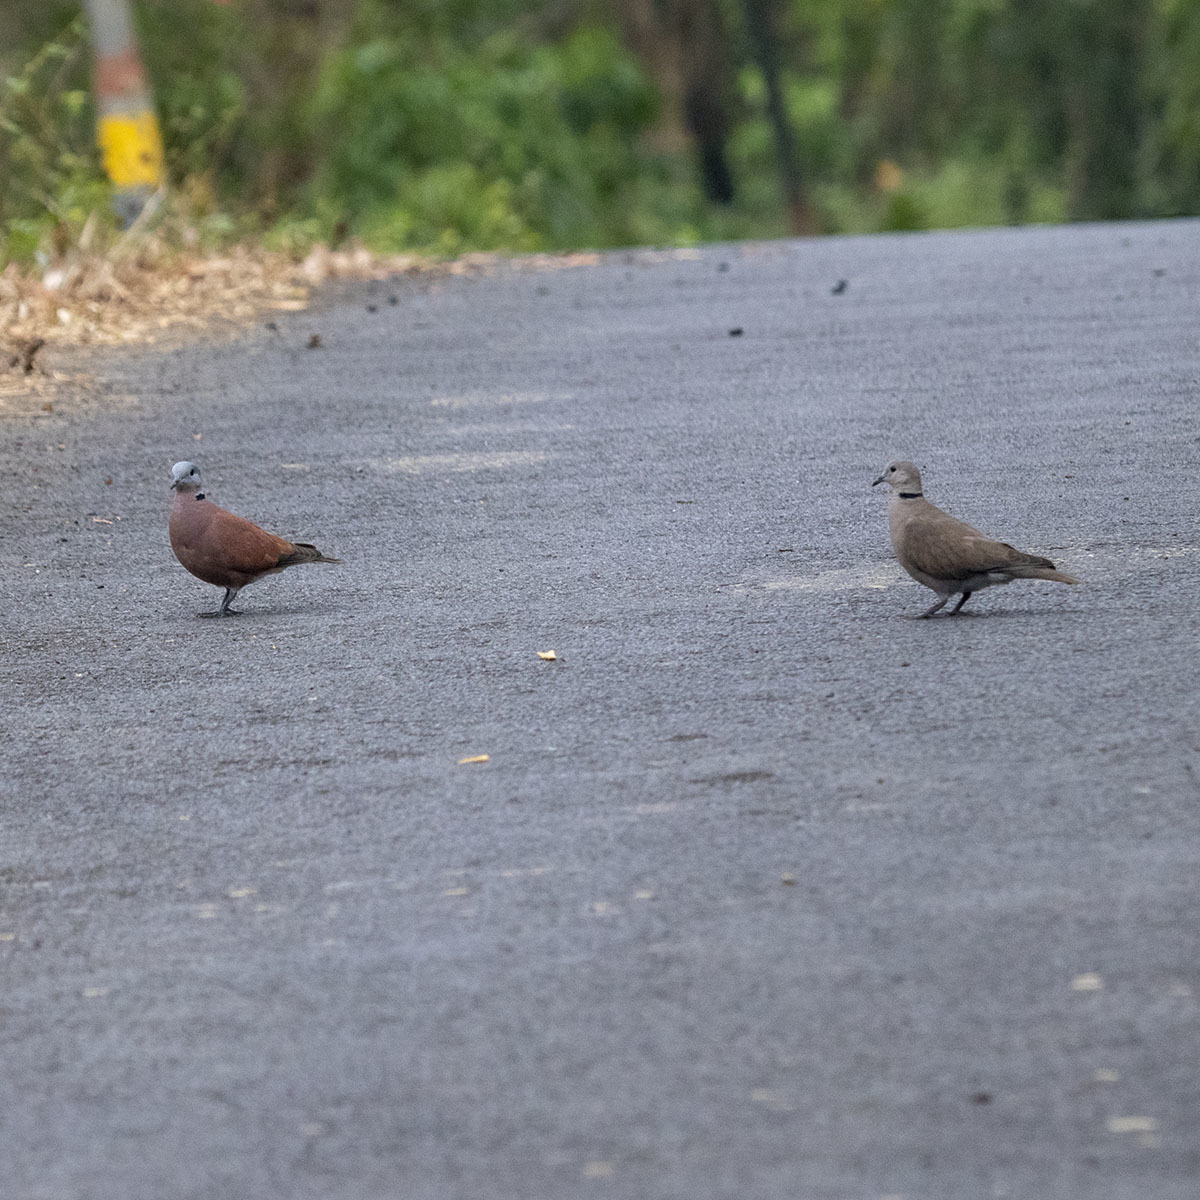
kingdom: Animalia
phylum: Chordata
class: Aves
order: Columbiformes
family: Columbidae
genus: Streptopelia
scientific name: Streptopelia tranquebarica
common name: Red turtle dove
